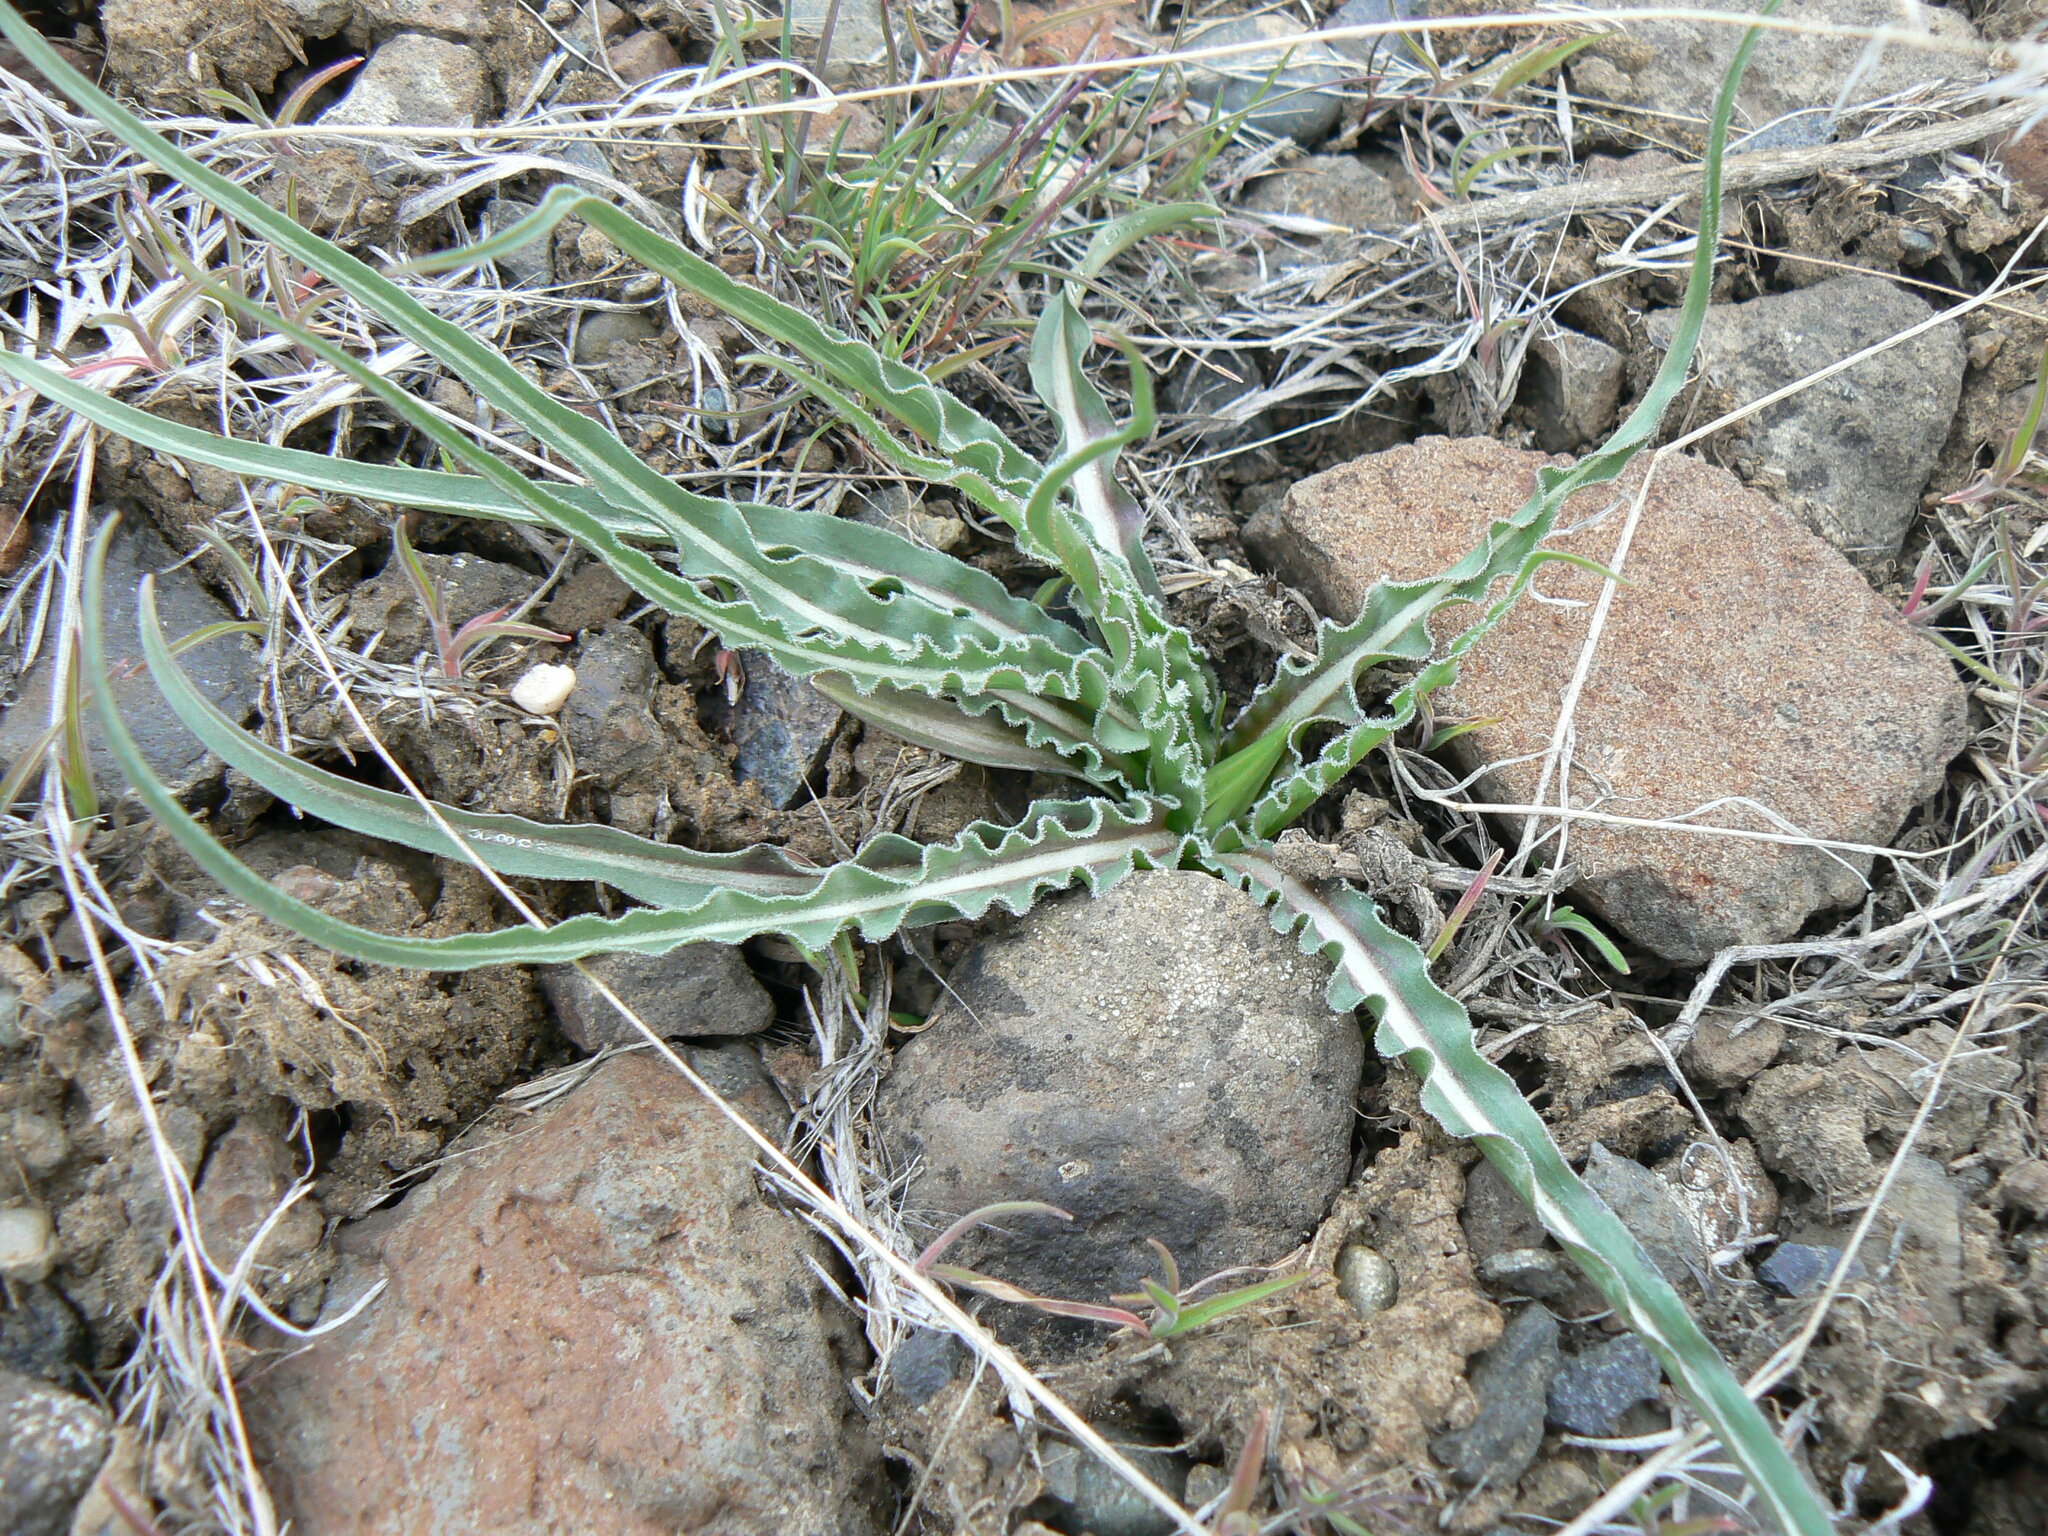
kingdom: Plantae
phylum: Tracheophyta
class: Magnoliopsida
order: Asterales
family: Asteraceae
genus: Microseris
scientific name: Microseris troximoides
